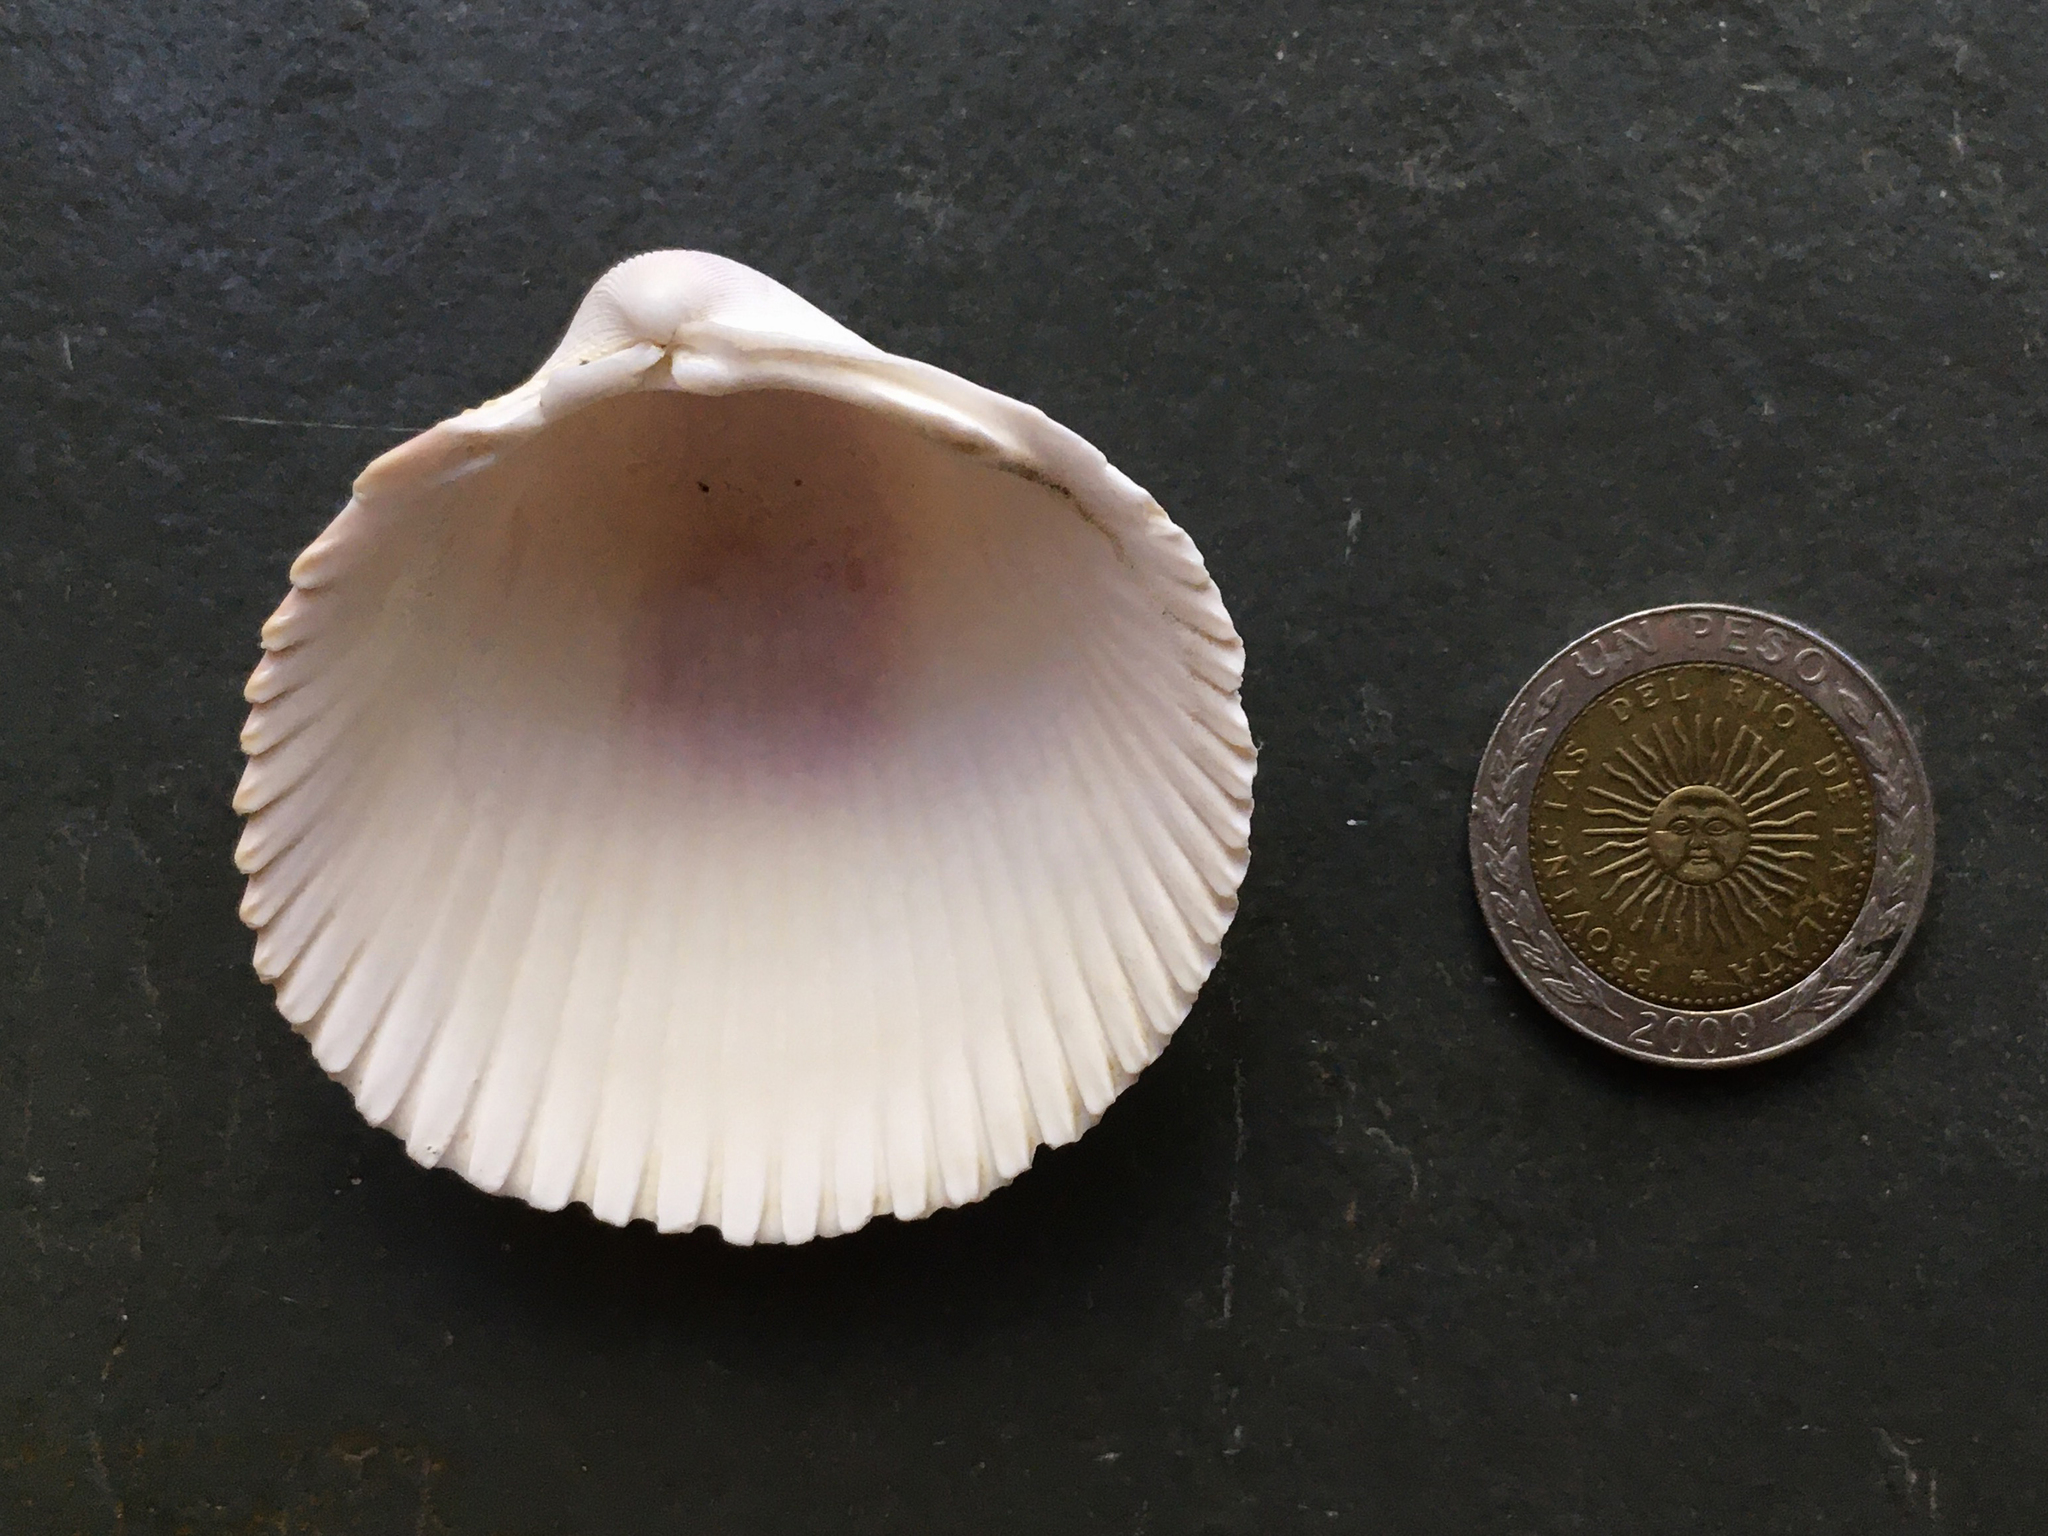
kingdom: Animalia
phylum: Mollusca
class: Bivalvia
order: Cardiida
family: Cardiidae
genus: Dallocardia
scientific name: Dallocardia delicatula
